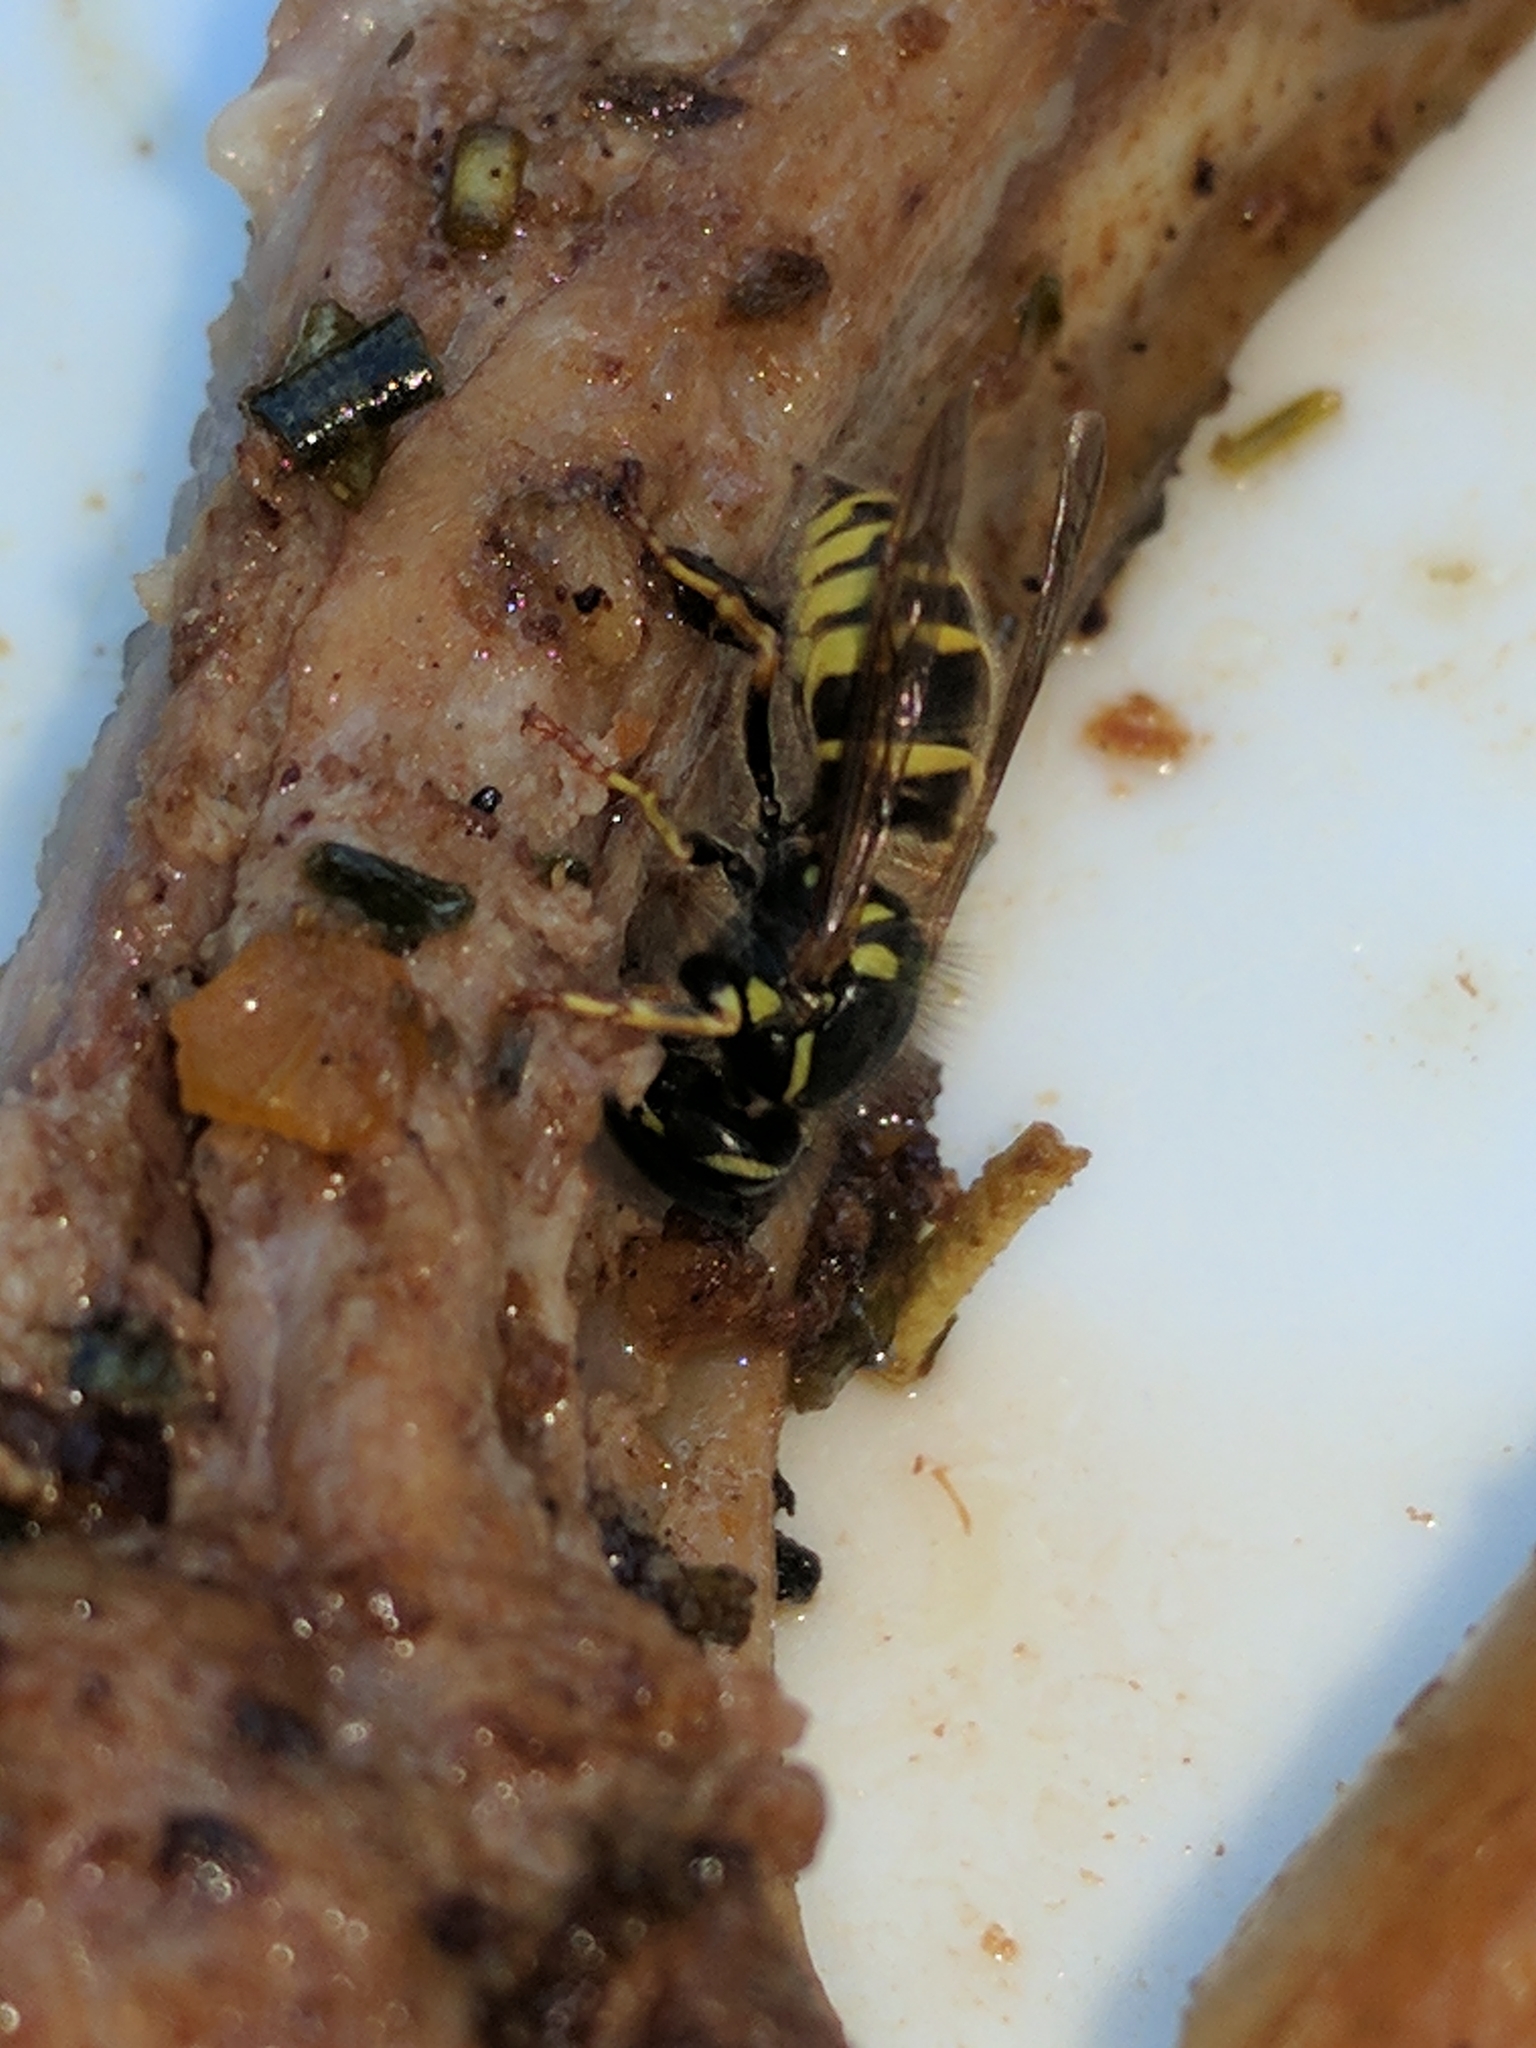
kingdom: Animalia
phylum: Arthropoda
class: Insecta
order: Hymenoptera
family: Vespidae
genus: Vespula
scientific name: Vespula vulgaris
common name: Common wasp
